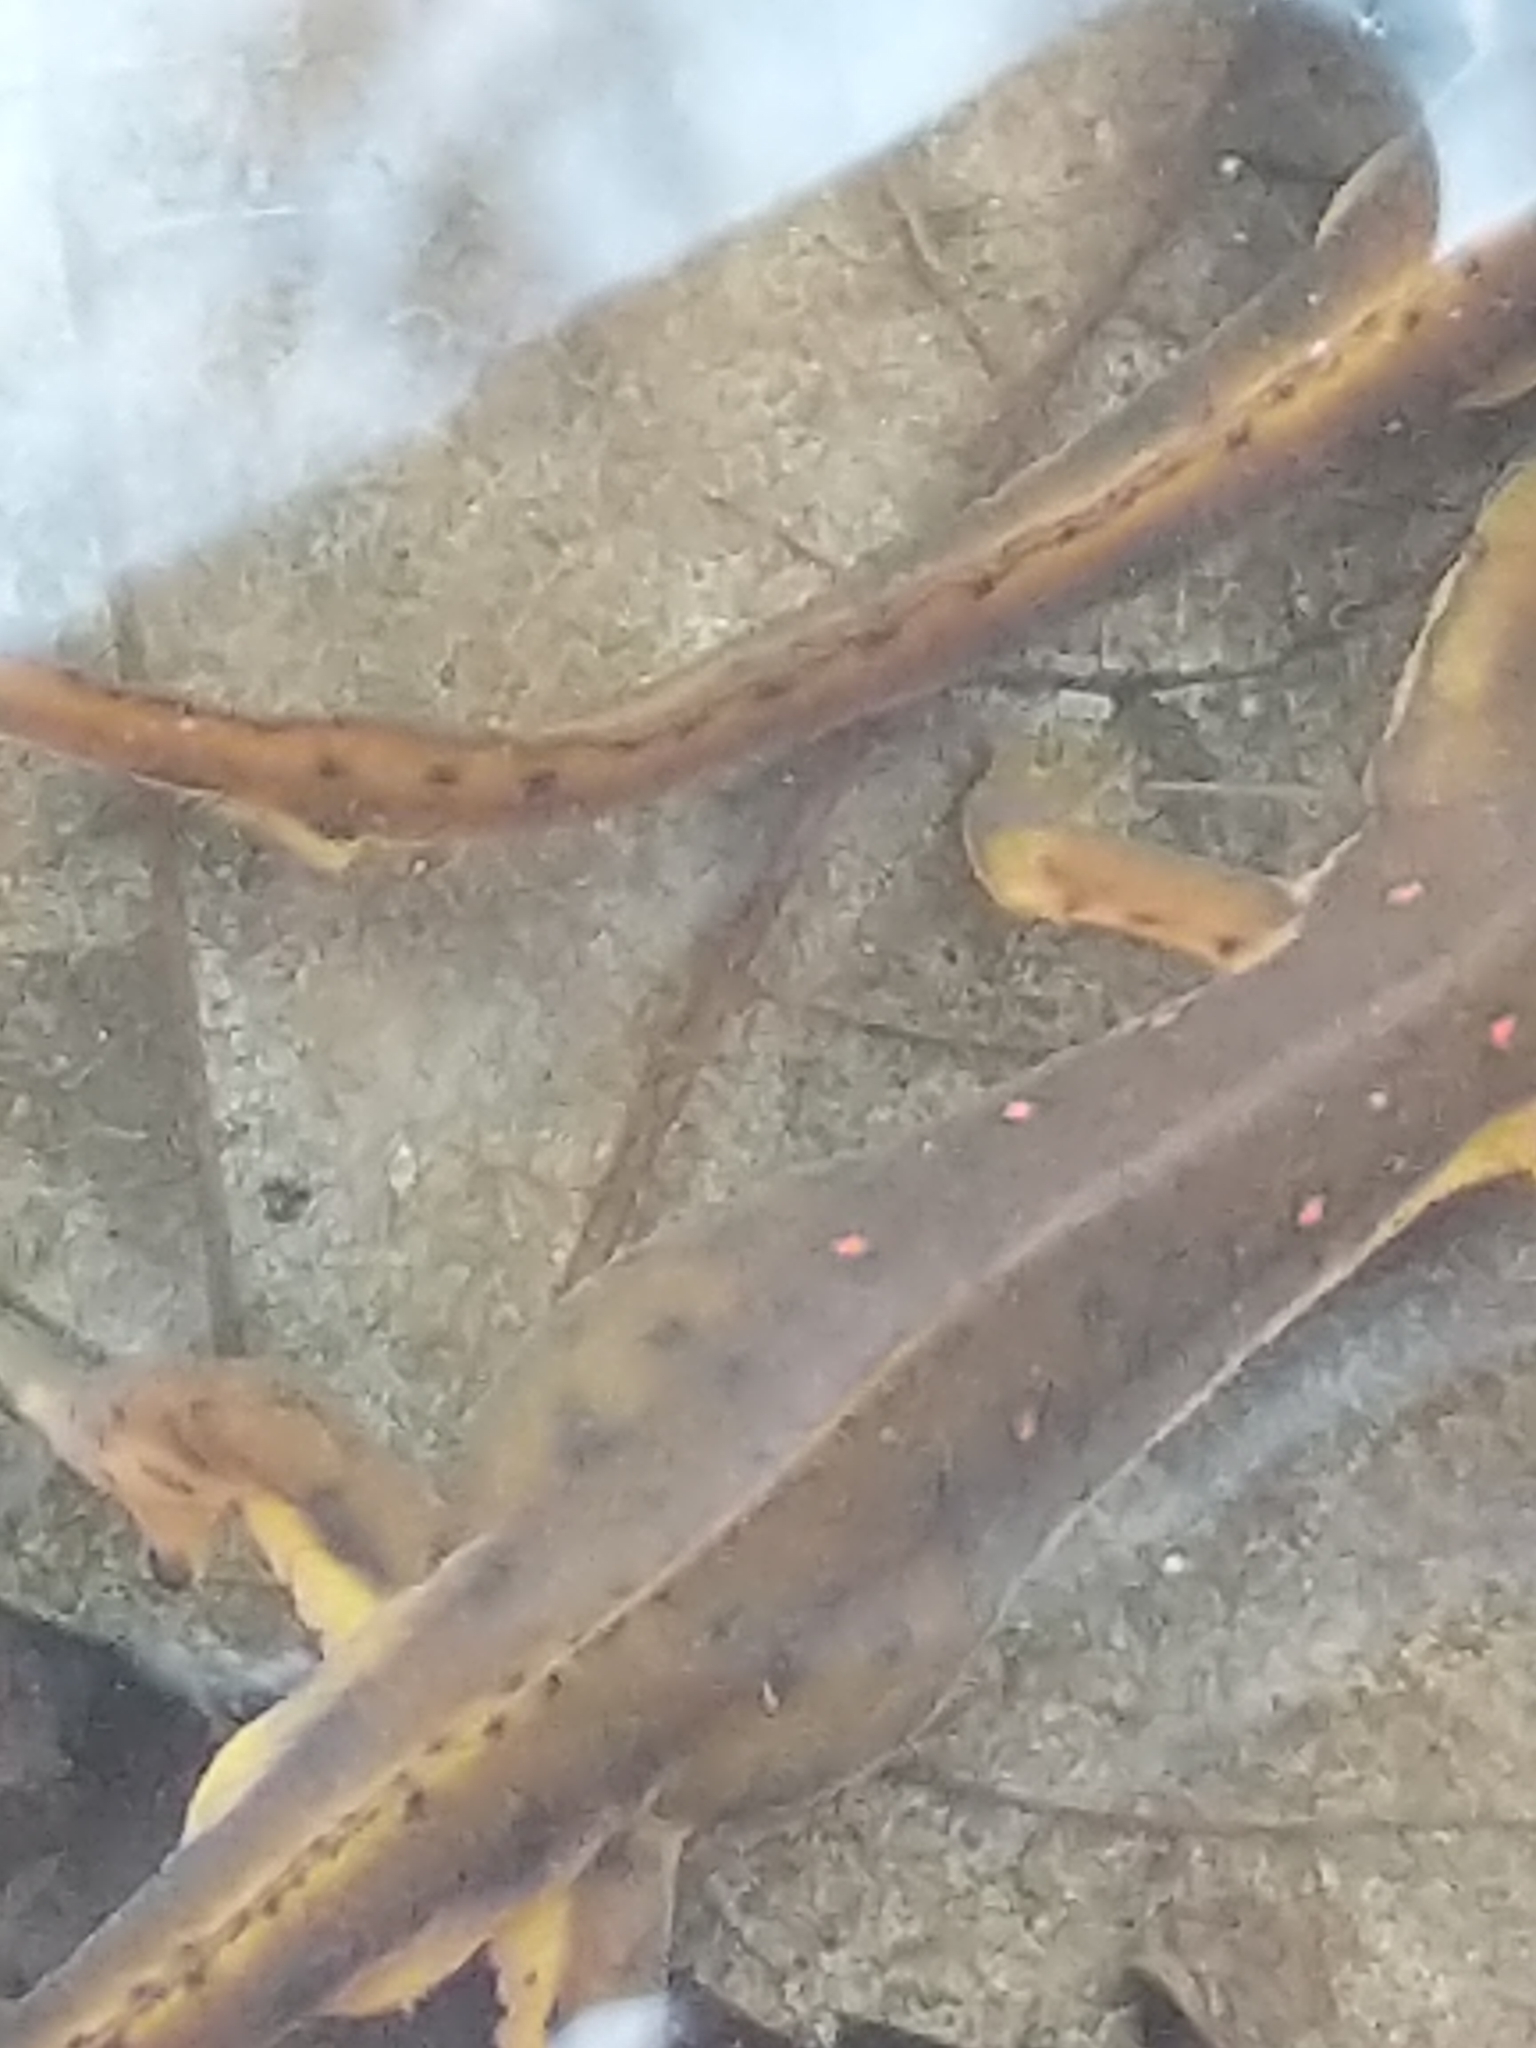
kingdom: Animalia
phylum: Chordata
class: Amphibia
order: Caudata
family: Salamandridae
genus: Notophthalmus
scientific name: Notophthalmus viridescens
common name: Eastern newt
